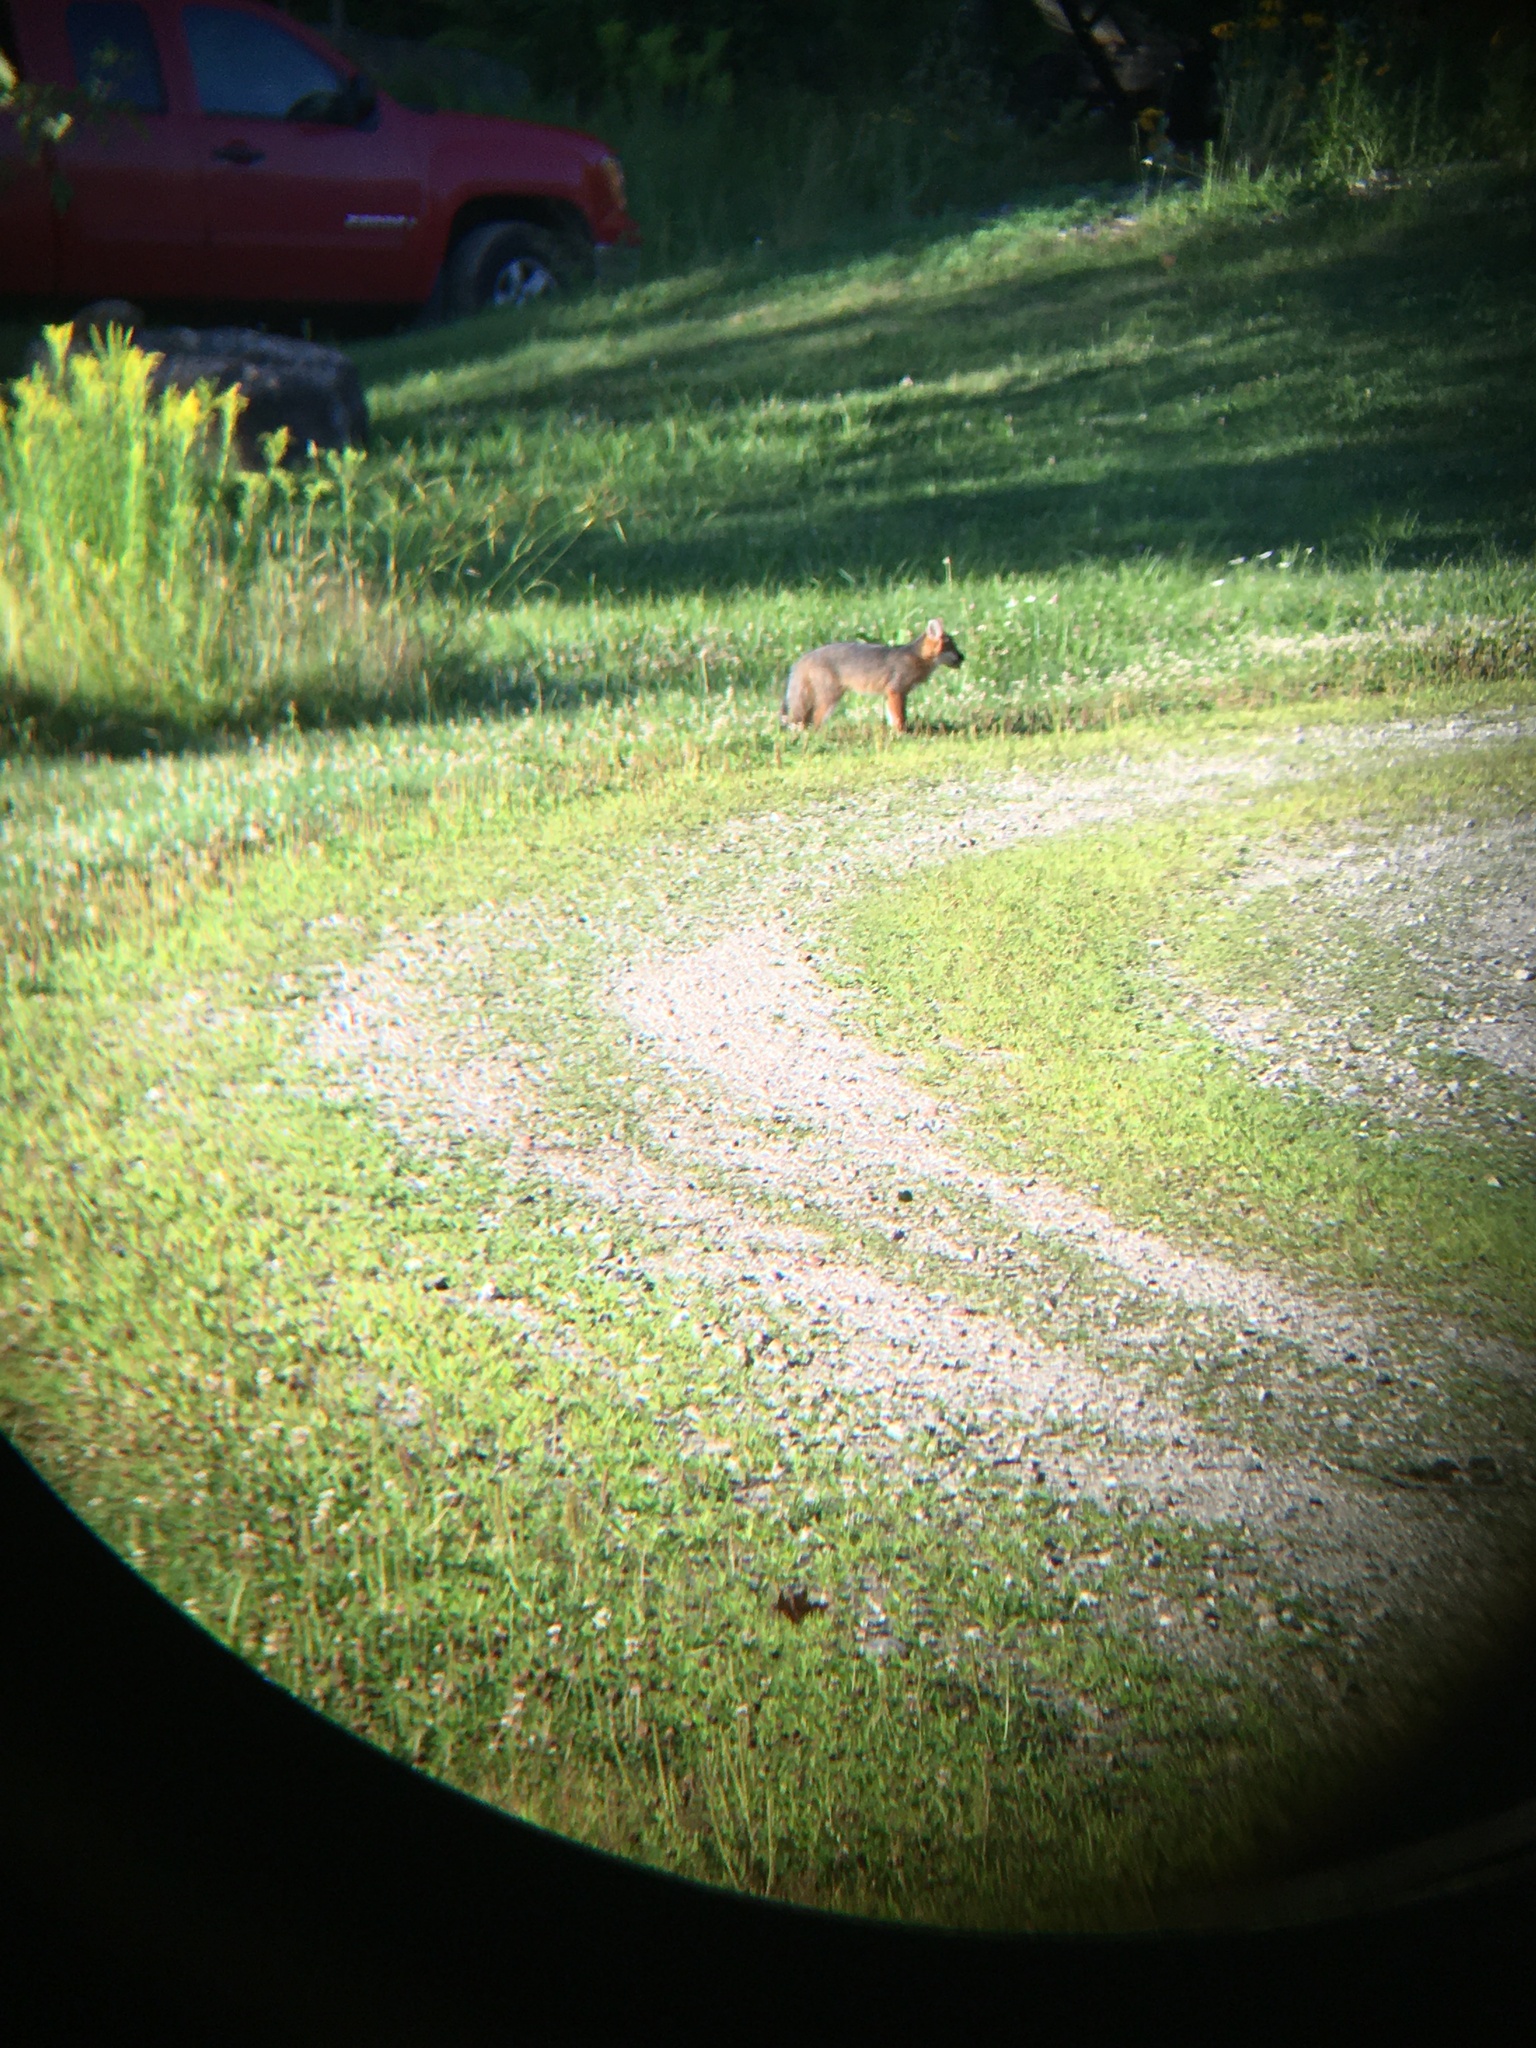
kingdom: Animalia
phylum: Chordata
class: Mammalia
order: Carnivora
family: Canidae
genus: Urocyon
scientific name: Urocyon cinereoargenteus
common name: Gray fox
